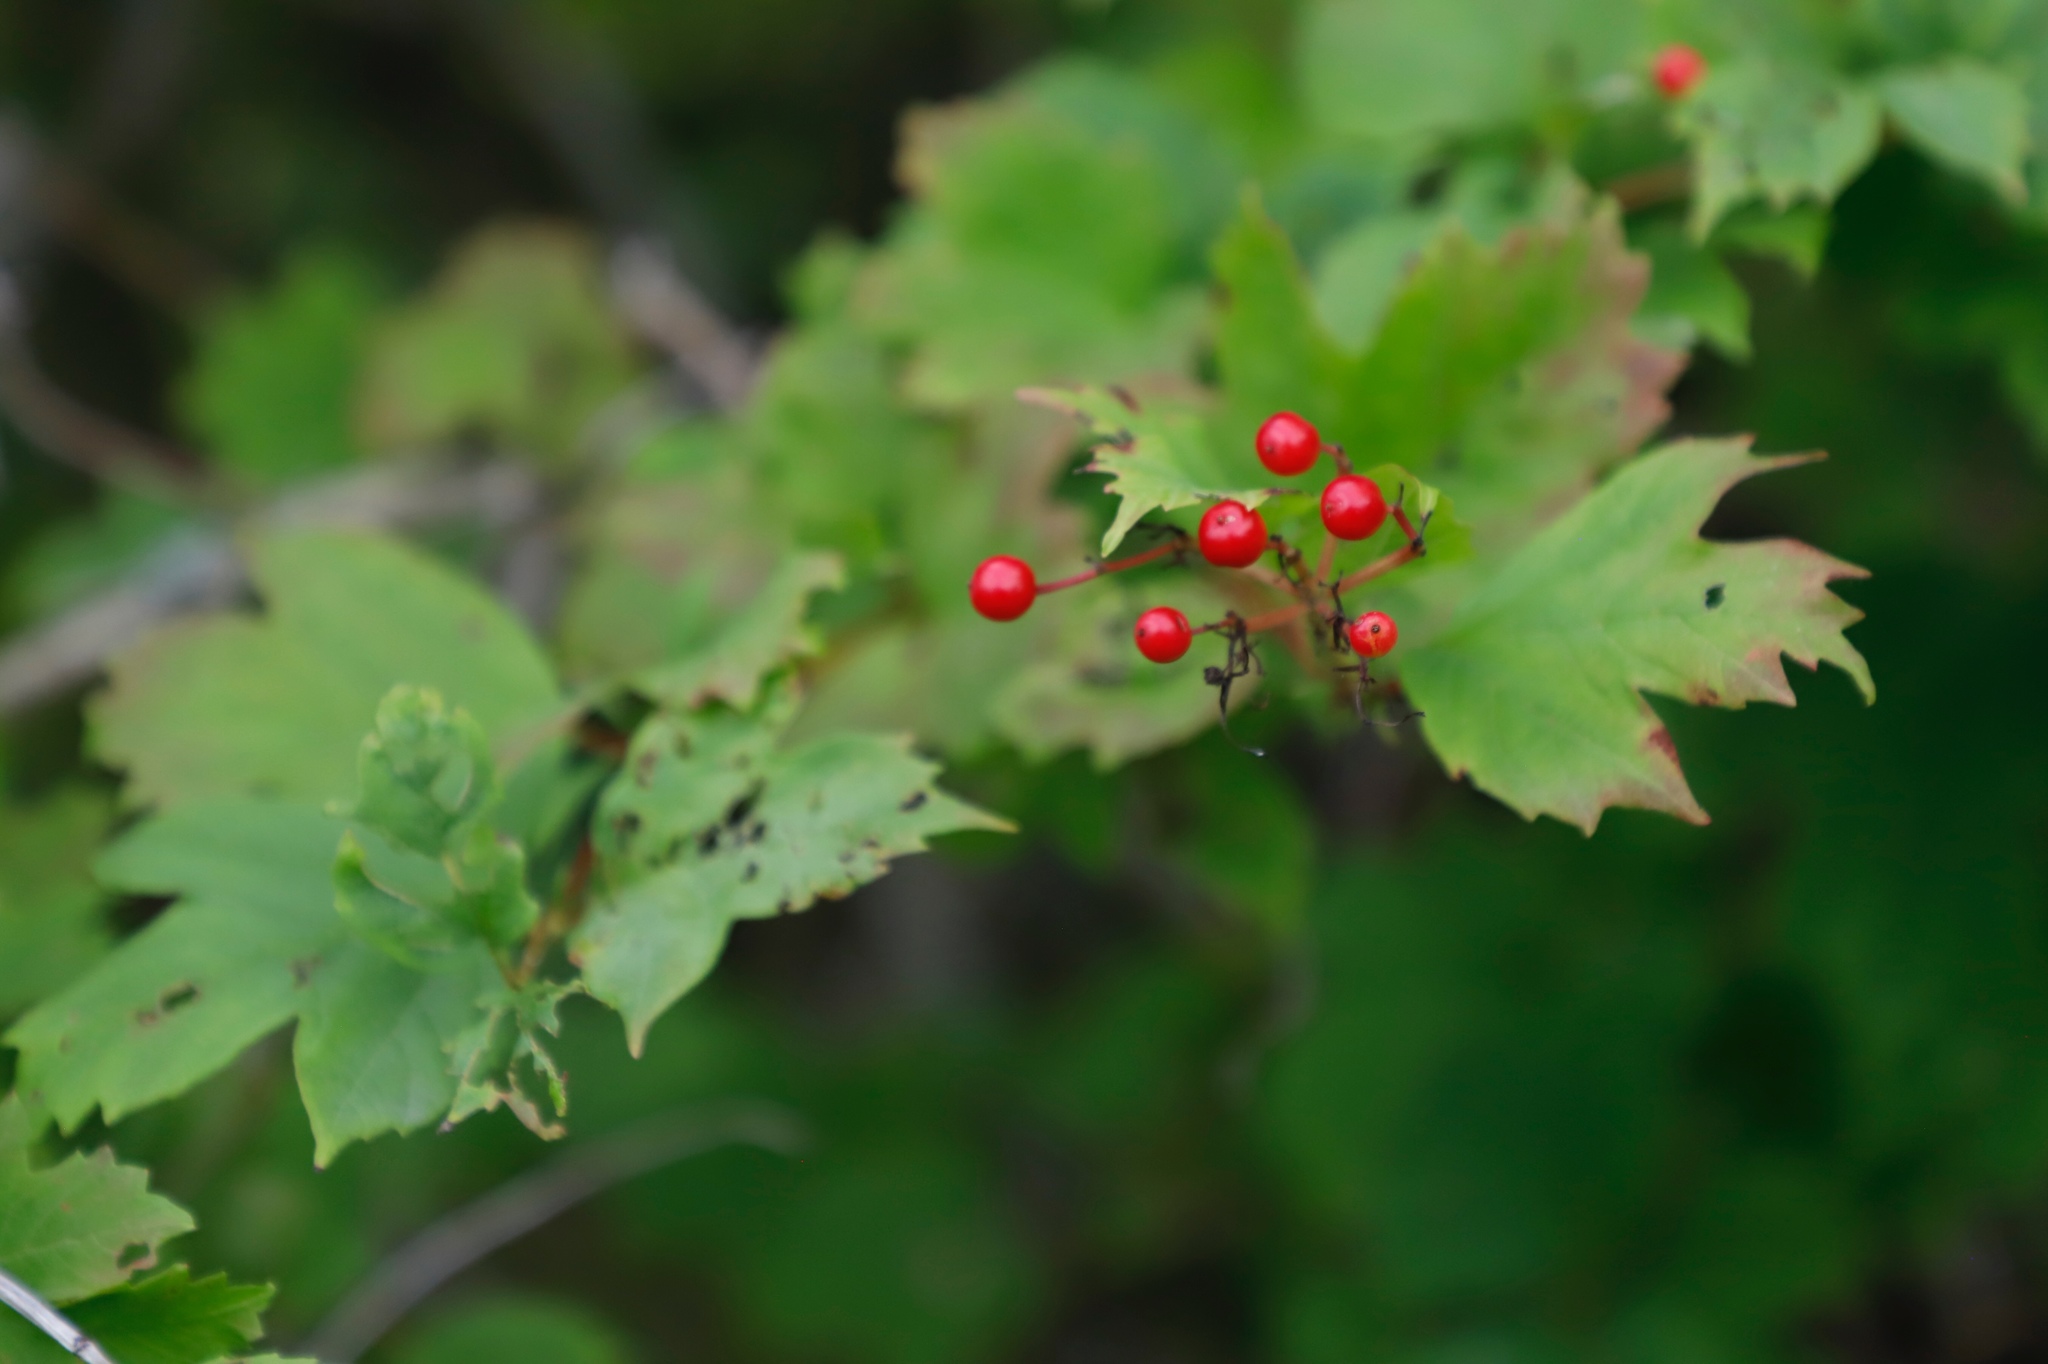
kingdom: Plantae
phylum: Tracheophyta
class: Magnoliopsida
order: Dipsacales
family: Viburnaceae
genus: Viburnum
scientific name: Viburnum opulus
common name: Guelder-rose
